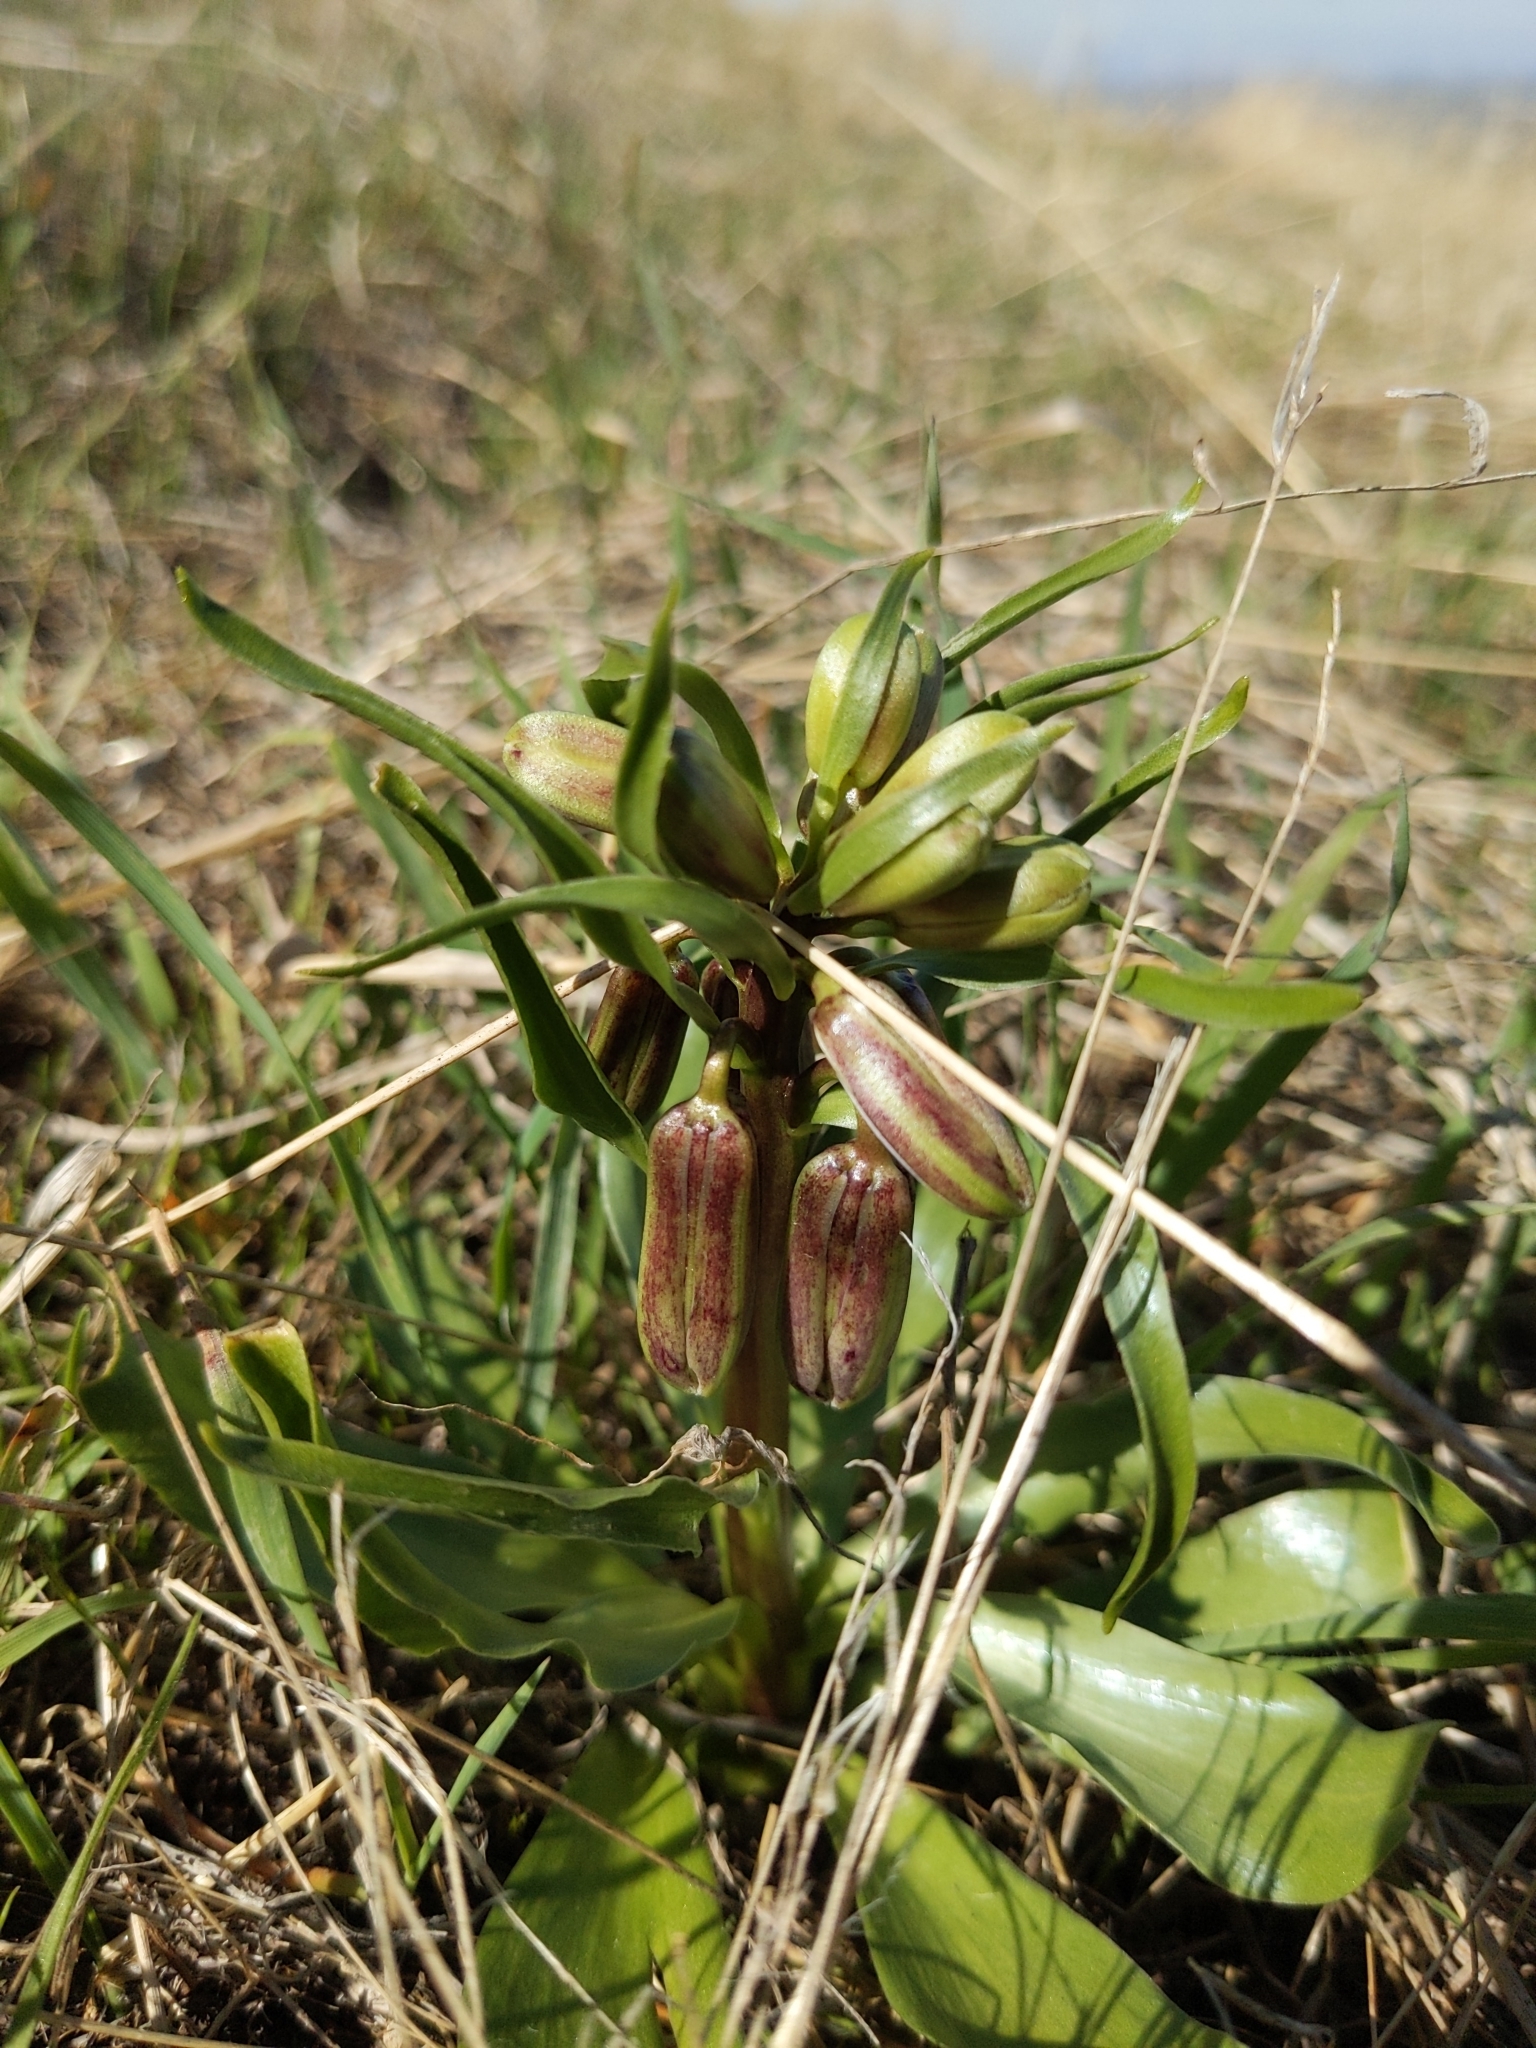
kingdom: Plantae
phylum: Tracheophyta
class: Liliopsida
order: Liliales
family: Liliaceae
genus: Fritillaria
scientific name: Fritillaria striata
